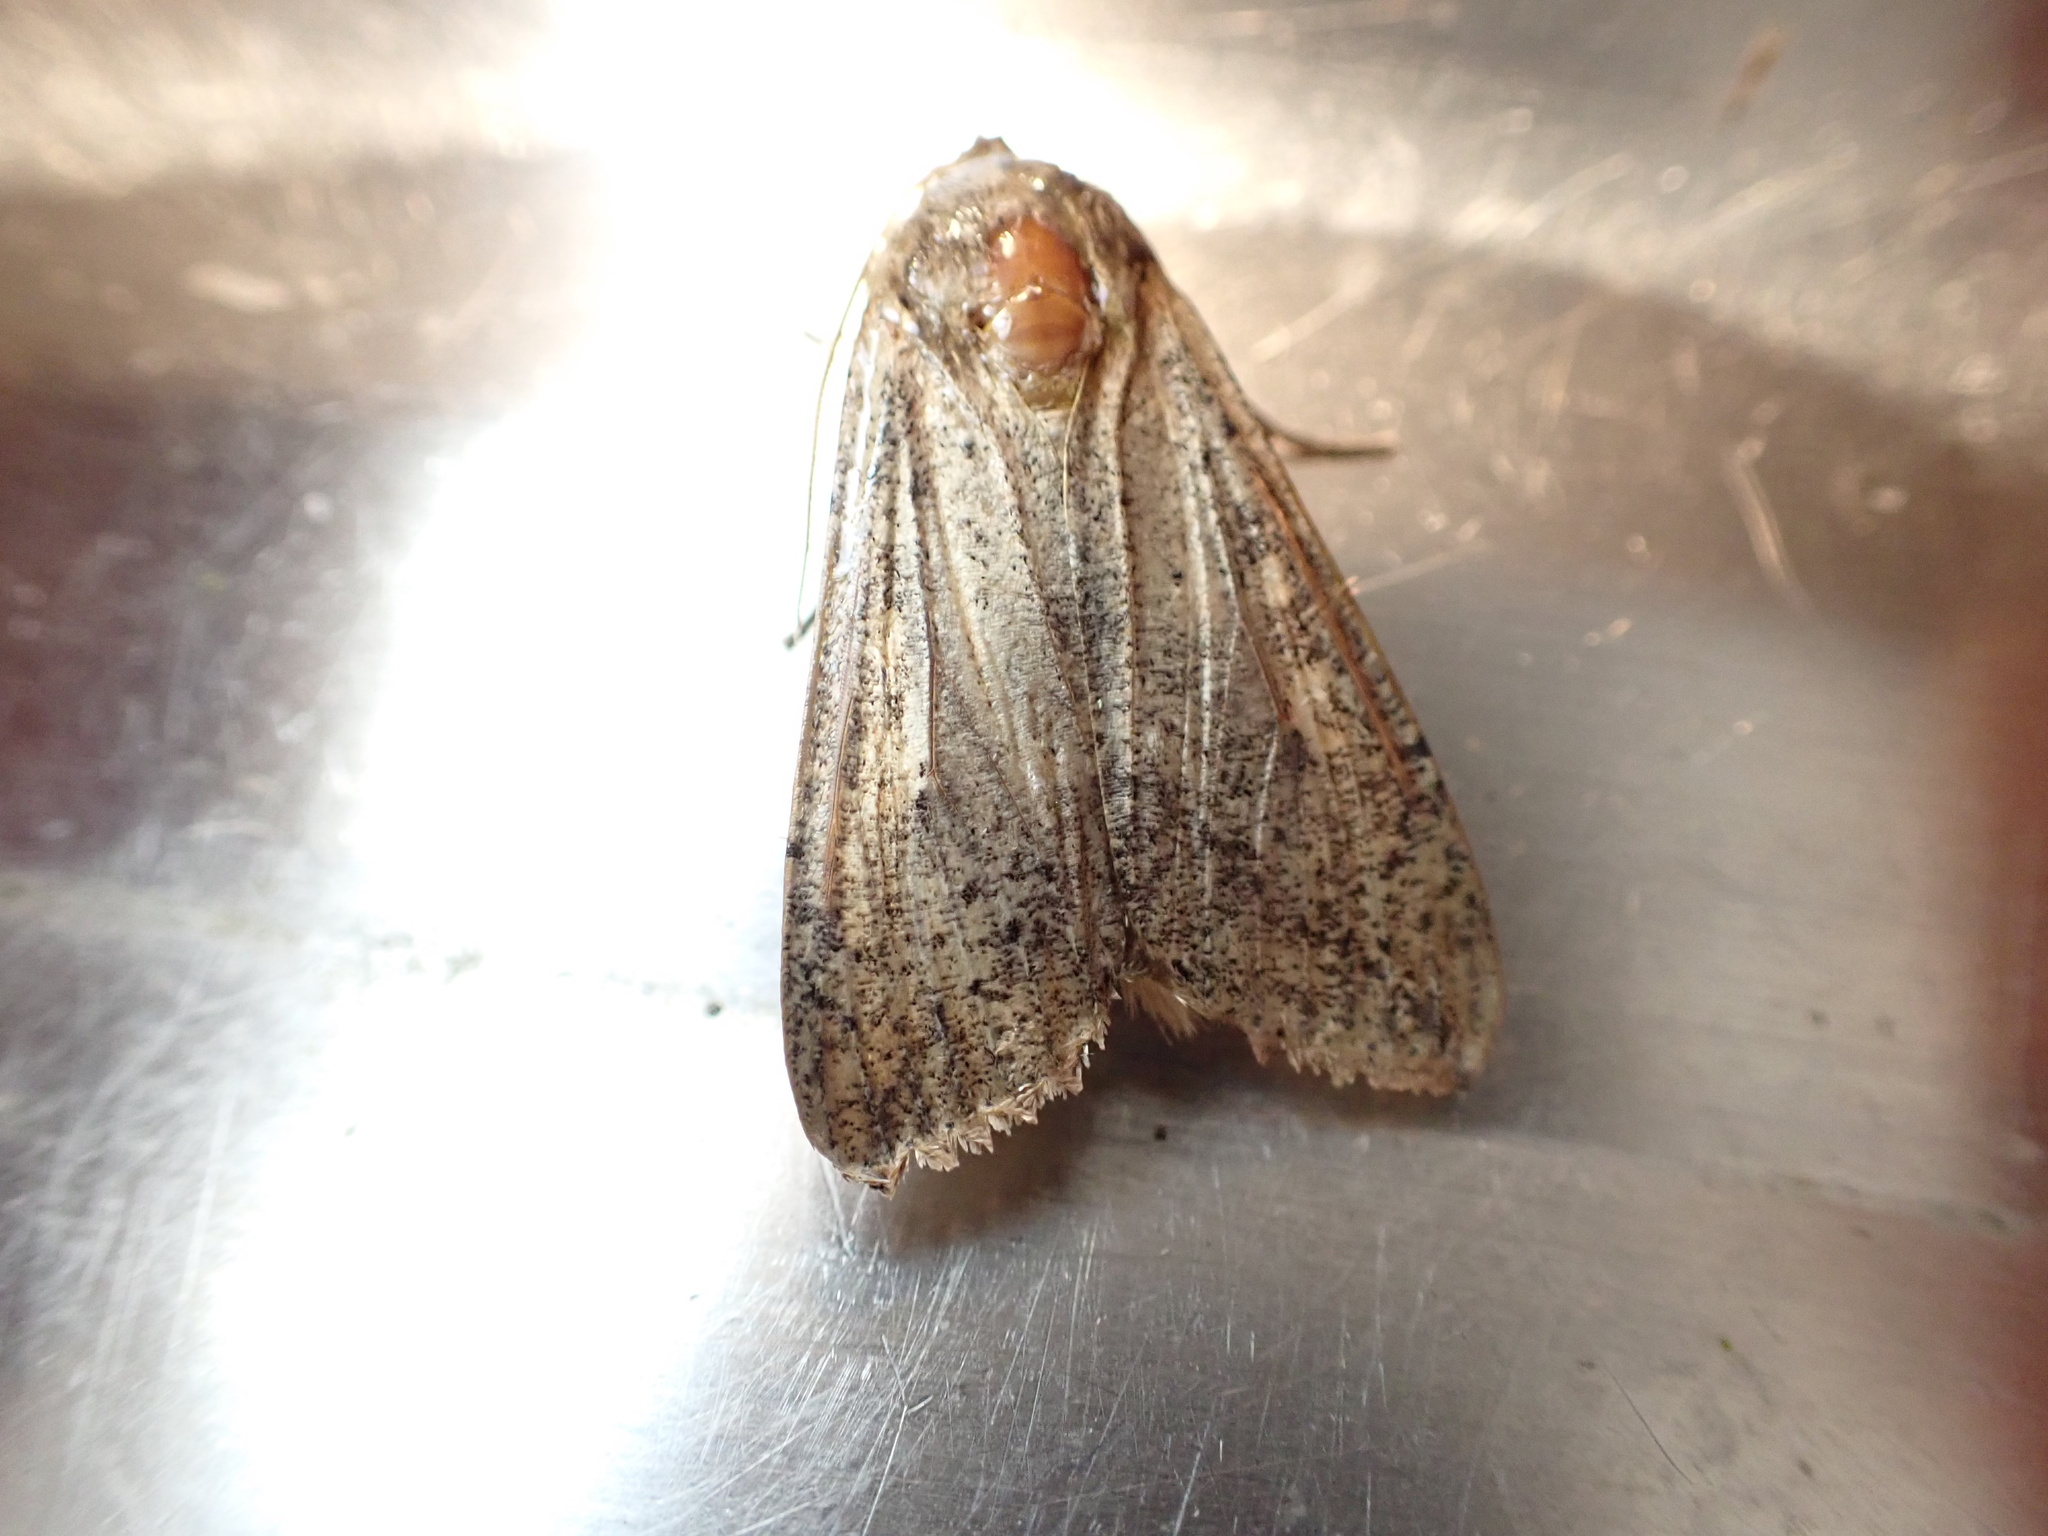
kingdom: Animalia
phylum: Arthropoda
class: Insecta
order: Lepidoptera
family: Noctuidae
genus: Mythimna
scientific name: Mythimna separata
